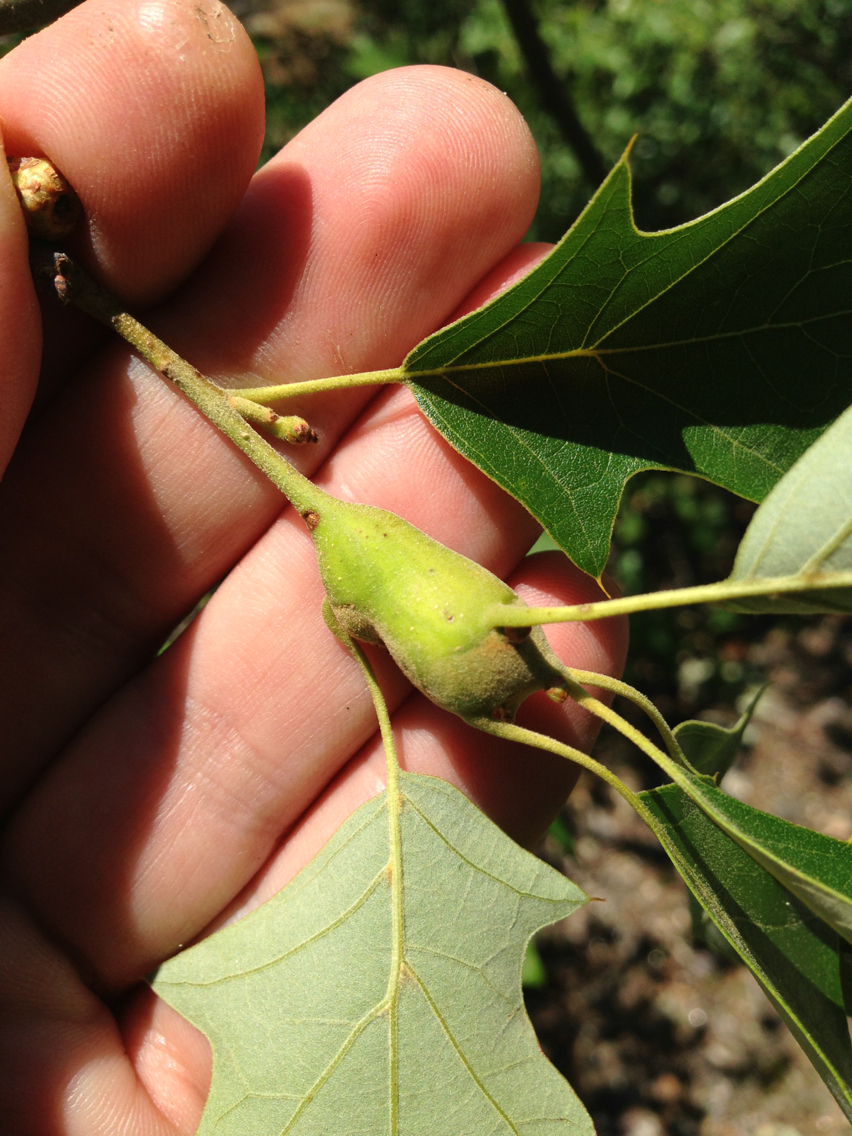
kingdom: Animalia
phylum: Arthropoda
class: Insecta
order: Hymenoptera
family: Cynipidae
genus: Zapatella
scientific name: Zapatella quercusphellos
